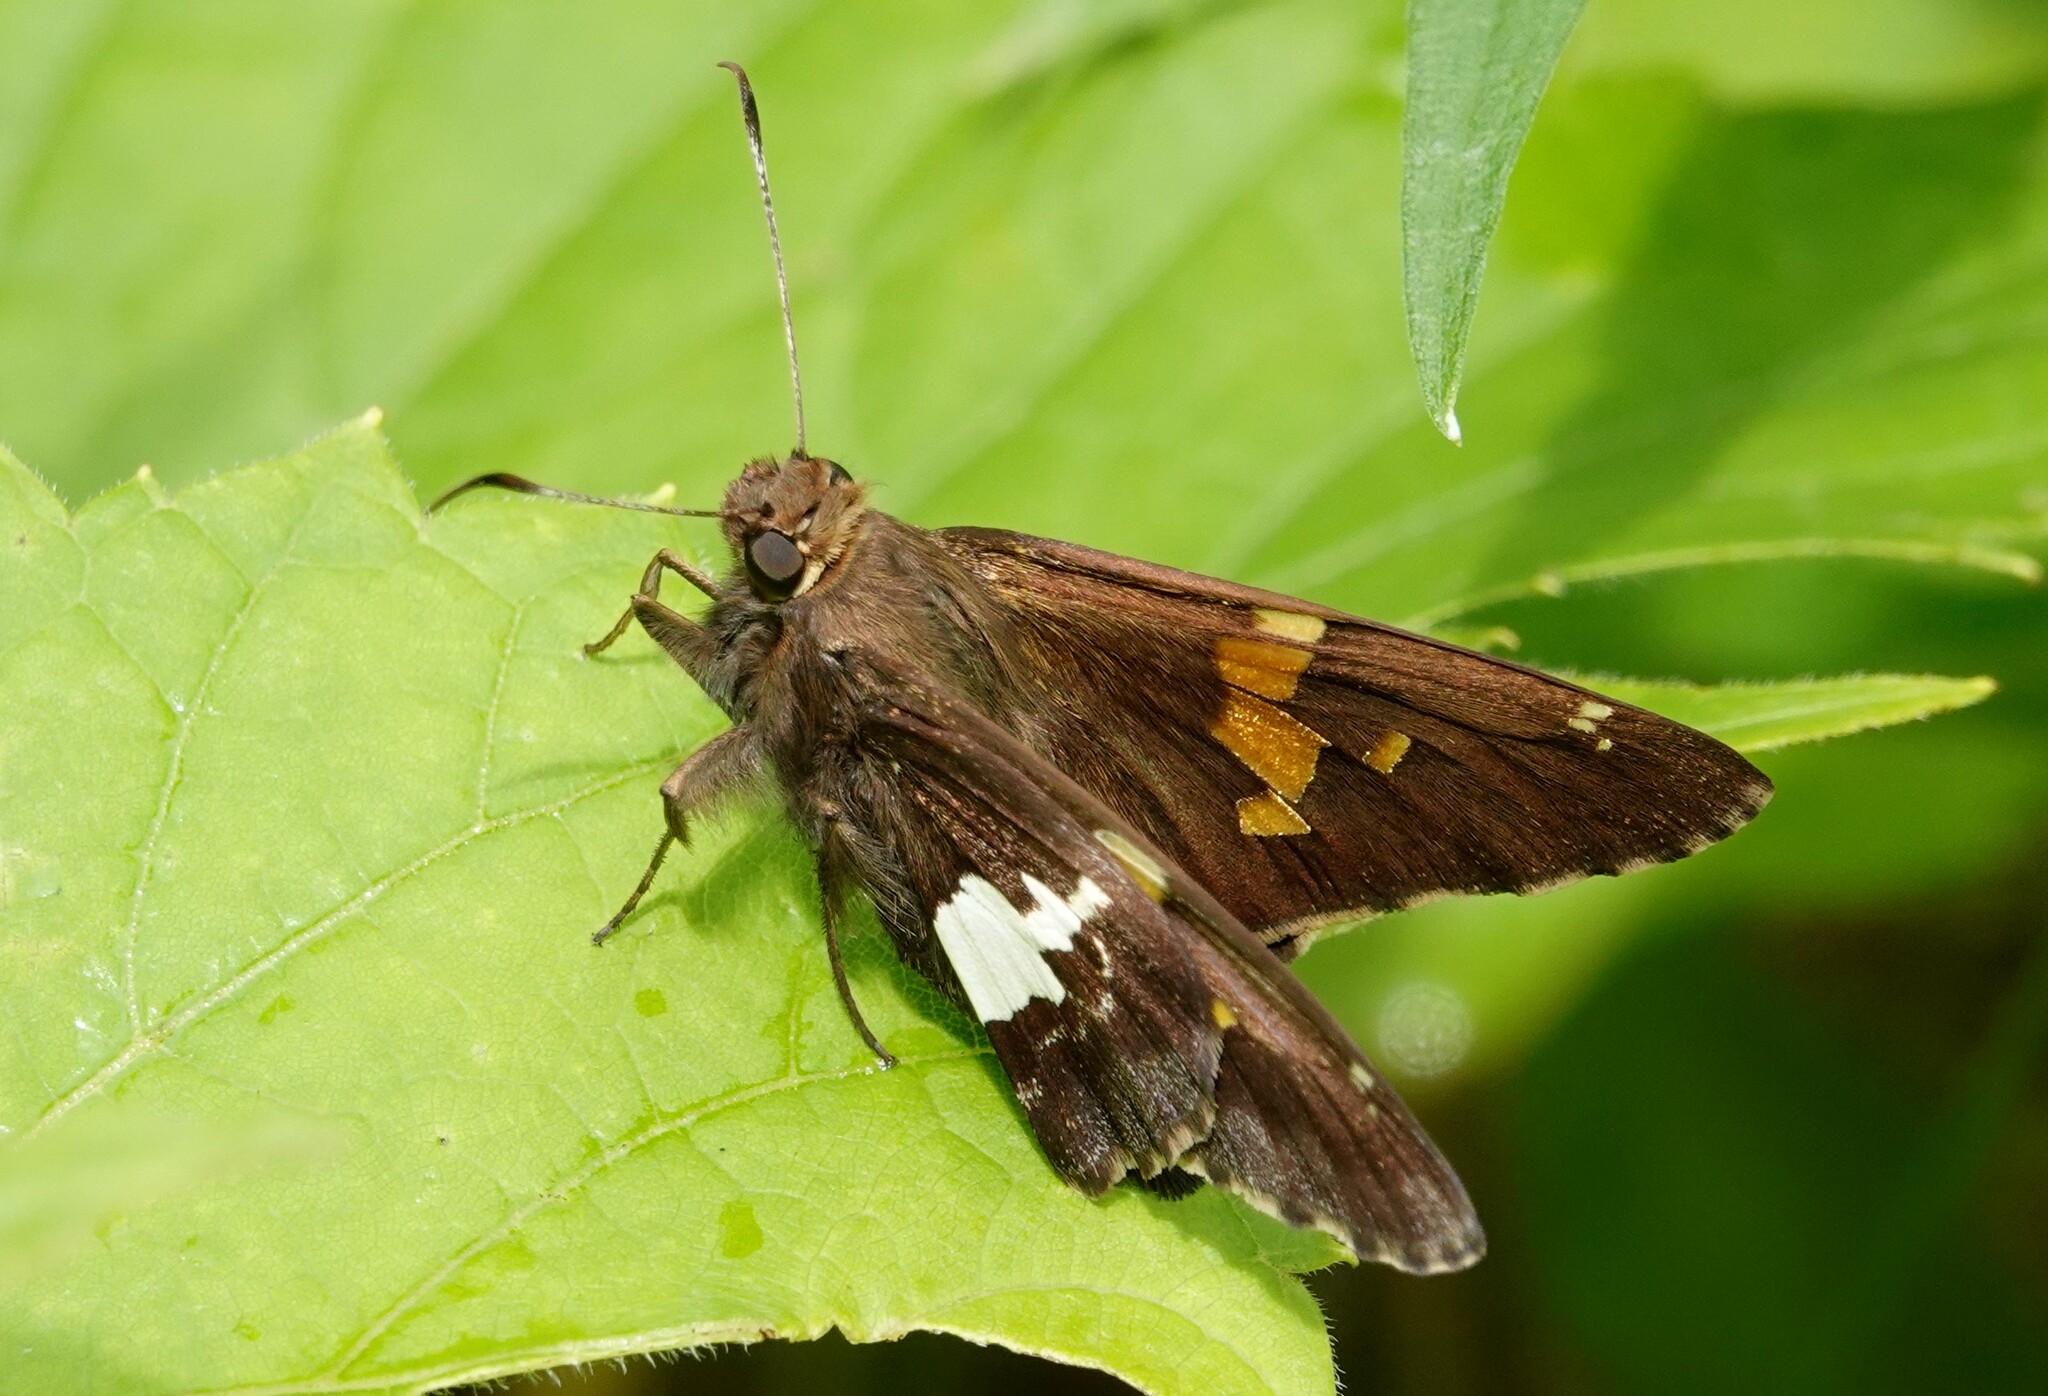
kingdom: Animalia
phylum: Arthropoda
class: Insecta
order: Lepidoptera
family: Hesperiidae
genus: Epargyreus
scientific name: Epargyreus clarus
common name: Silver-spotted skipper
